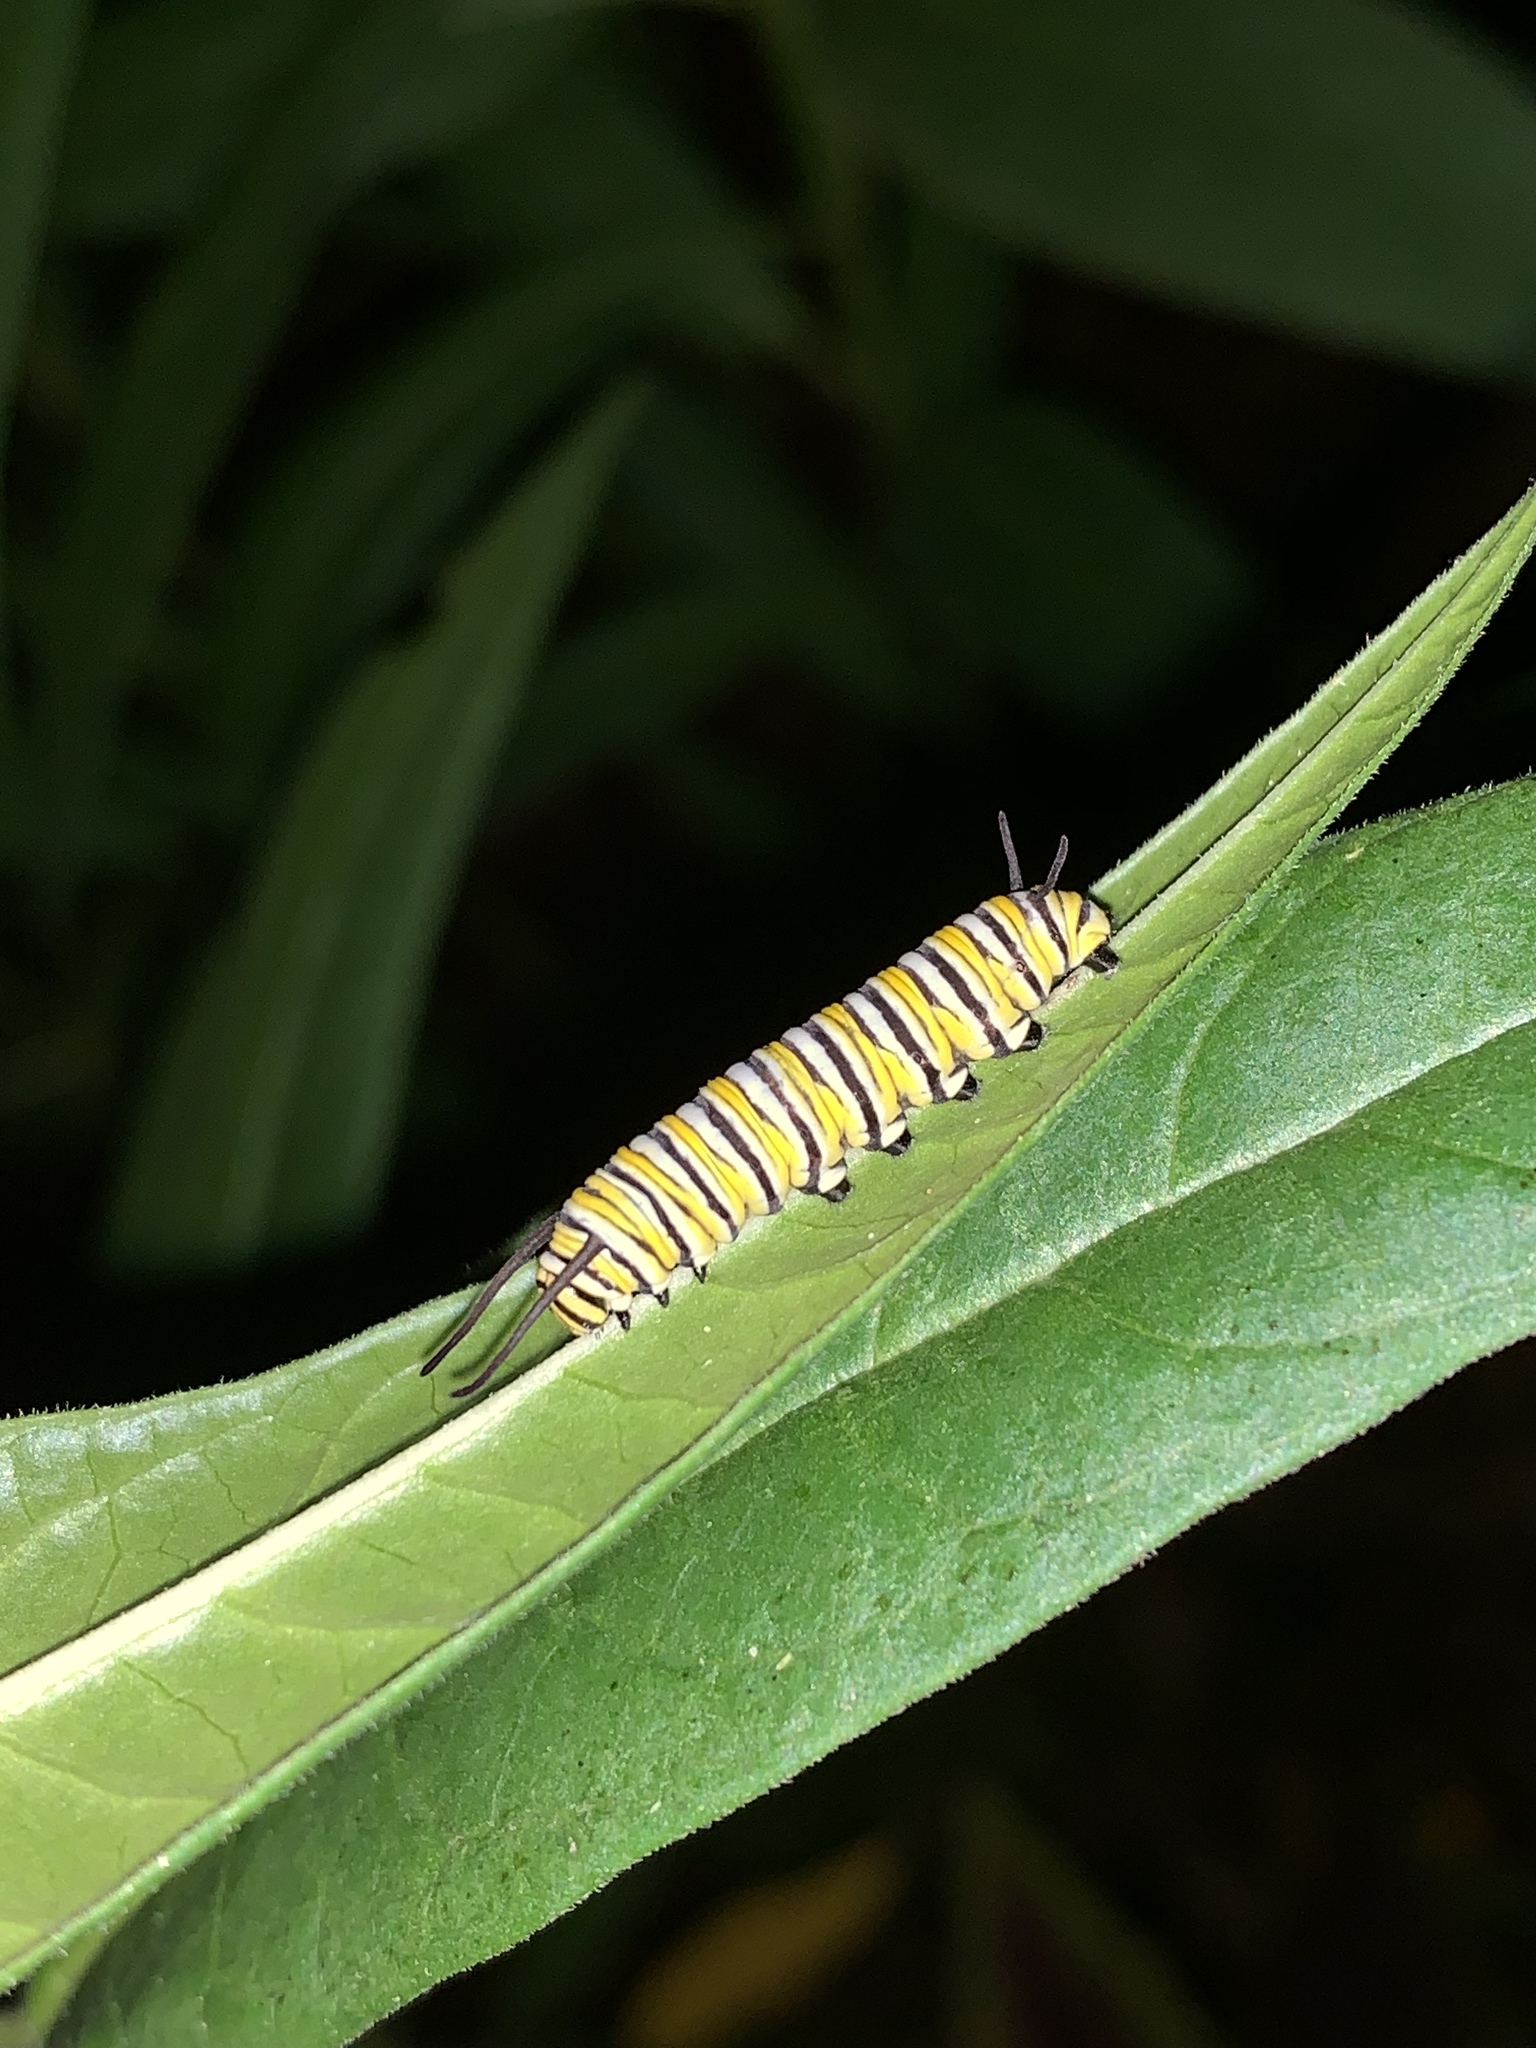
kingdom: Animalia
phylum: Arthropoda
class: Insecta
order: Lepidoptera
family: Nymphalidae
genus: Danaus
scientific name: Danaus plexippus
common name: Monarch
